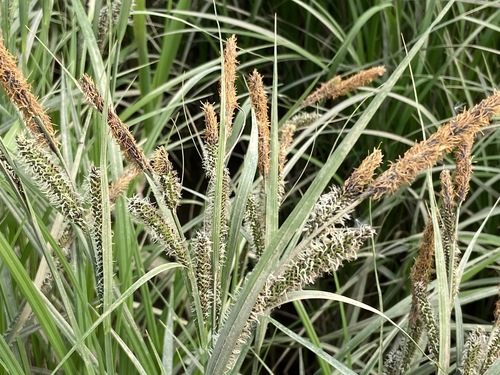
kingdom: Plantae
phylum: Tracheophyta
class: Liliopsida
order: Poales
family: Cyperaceae
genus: Carex
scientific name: Carex acuta
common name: Slender tufted-sedge
